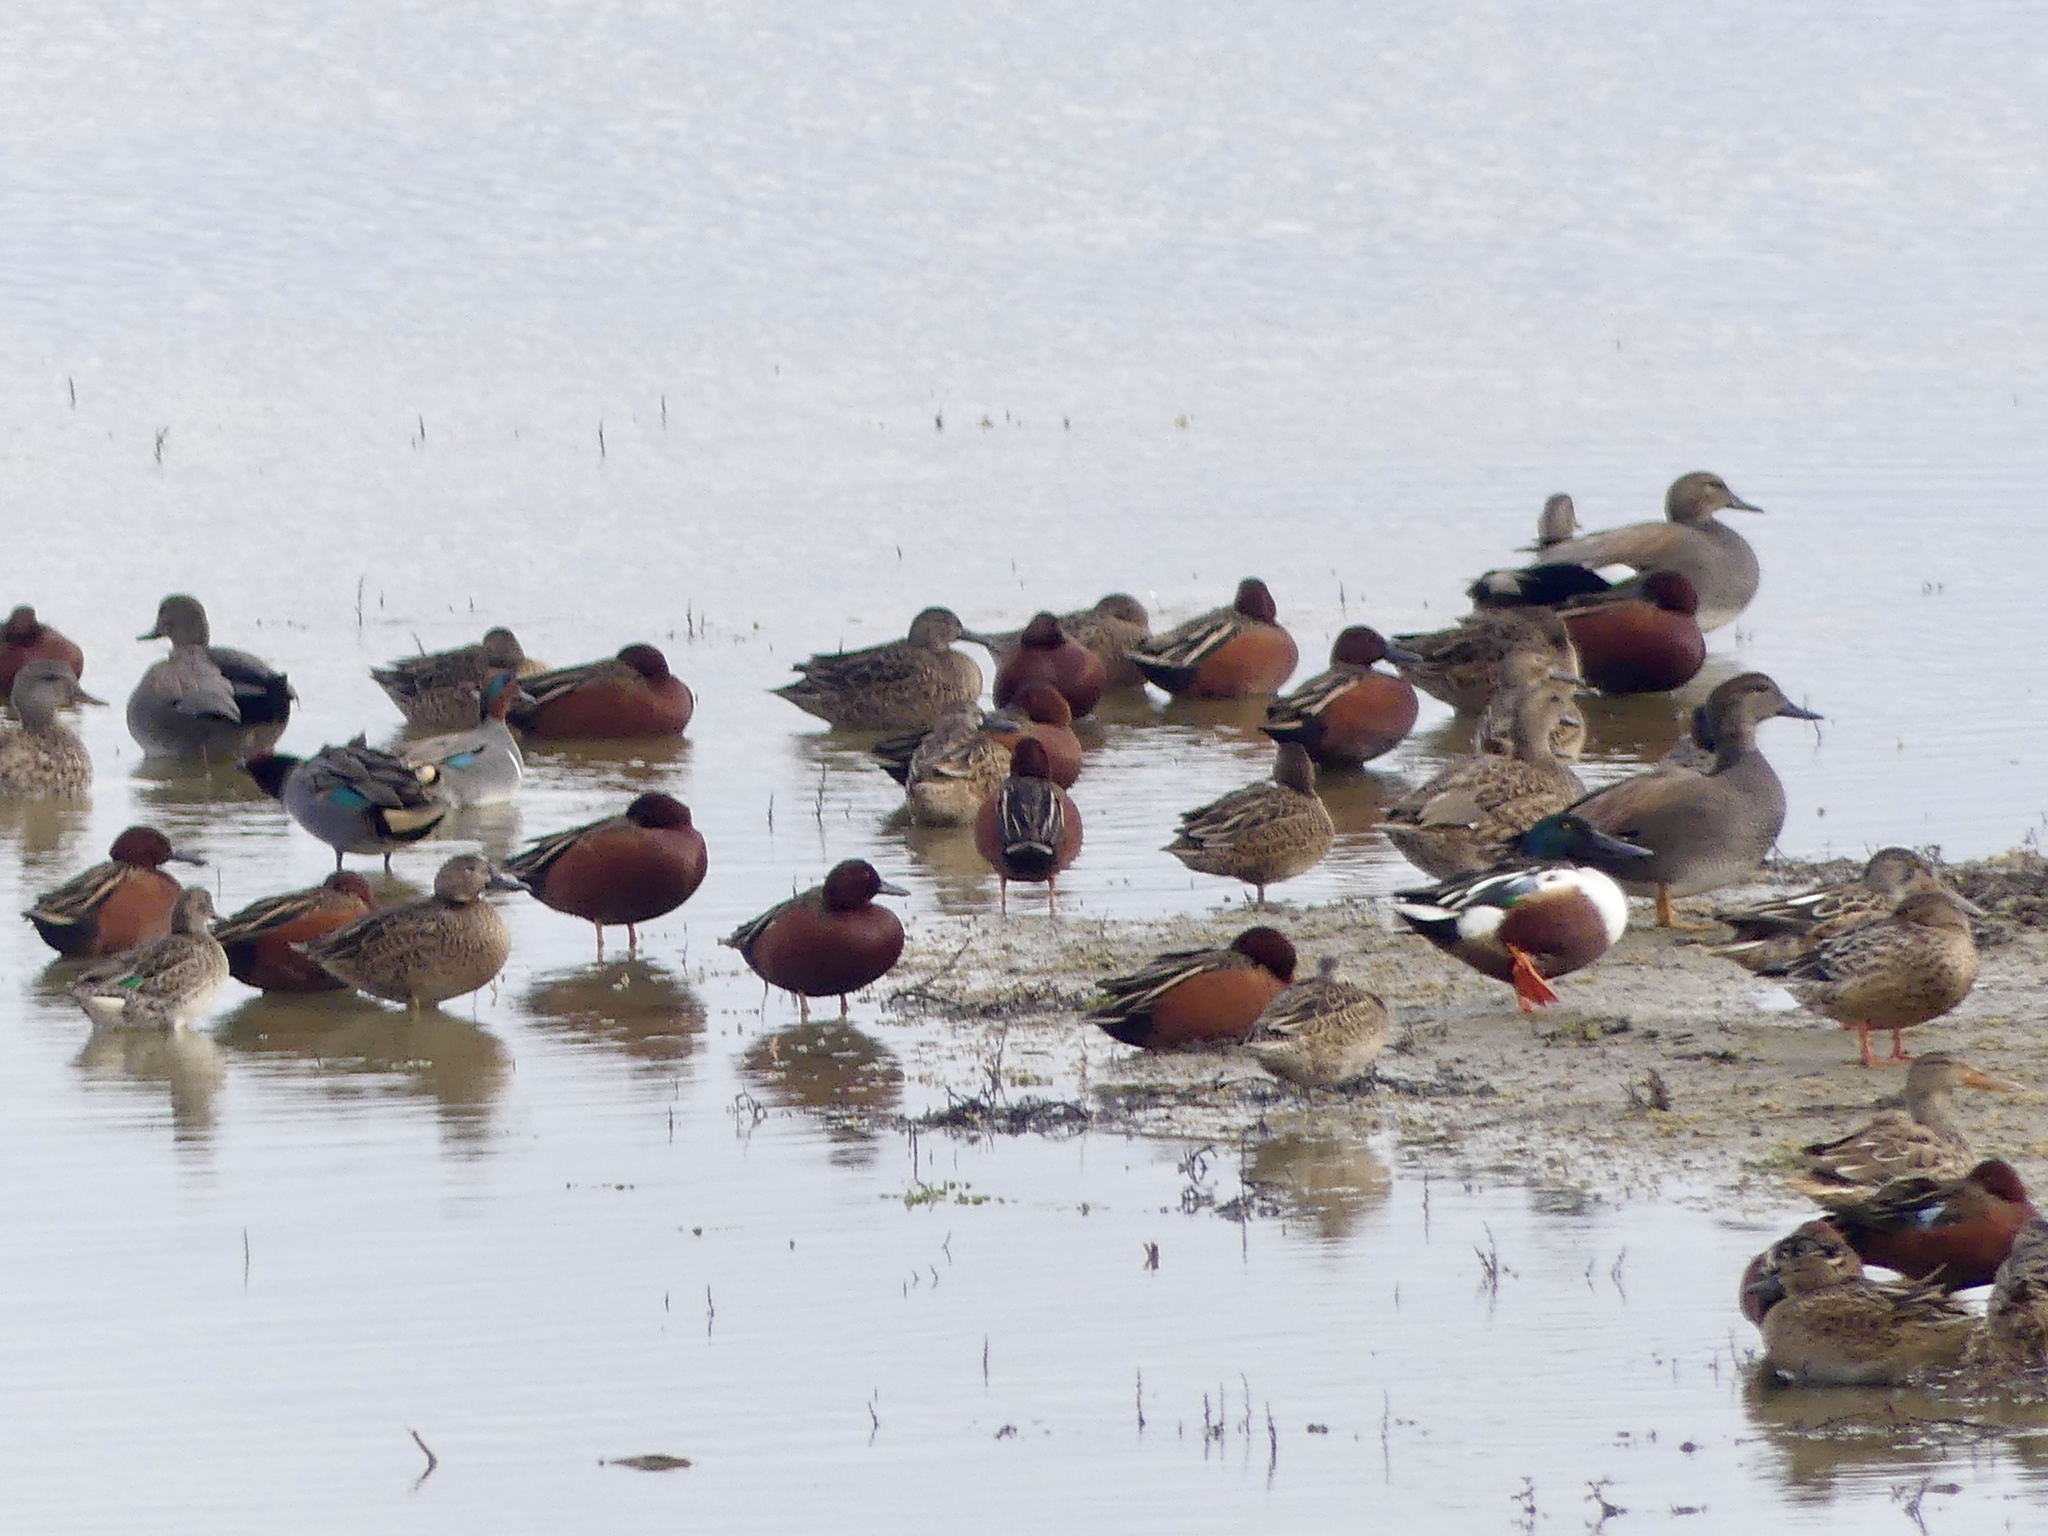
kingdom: Animalia
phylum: Chordata
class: Aves
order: Anseriformes
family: Anatidae
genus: Spatula
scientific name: Spatula cyanoptera
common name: Cinnamon teal
